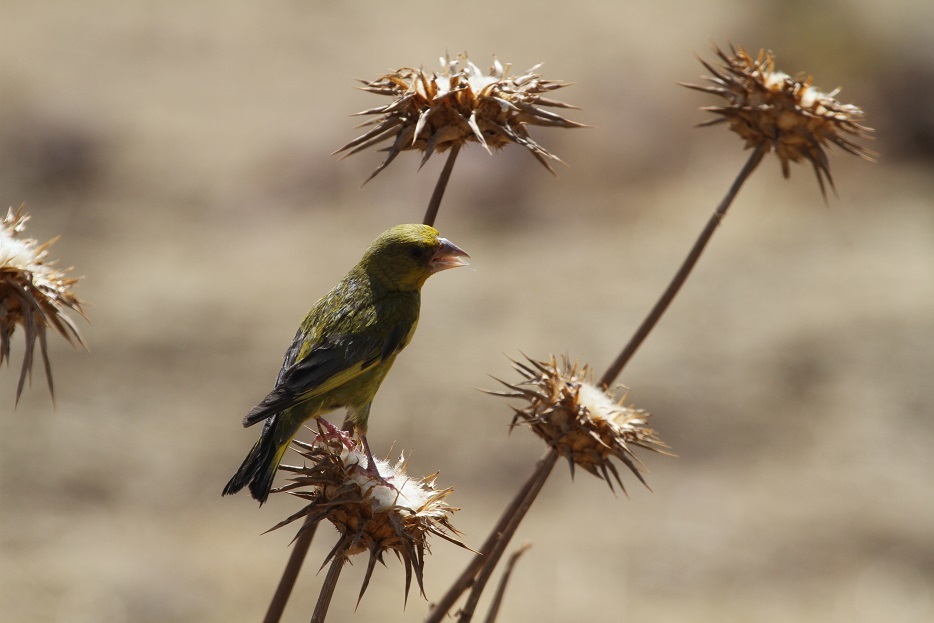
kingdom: Plantae
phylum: Tracheophyta
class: Liliopsida
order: Poales
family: Poaceae
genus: Chloris
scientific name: Chloris chloris
